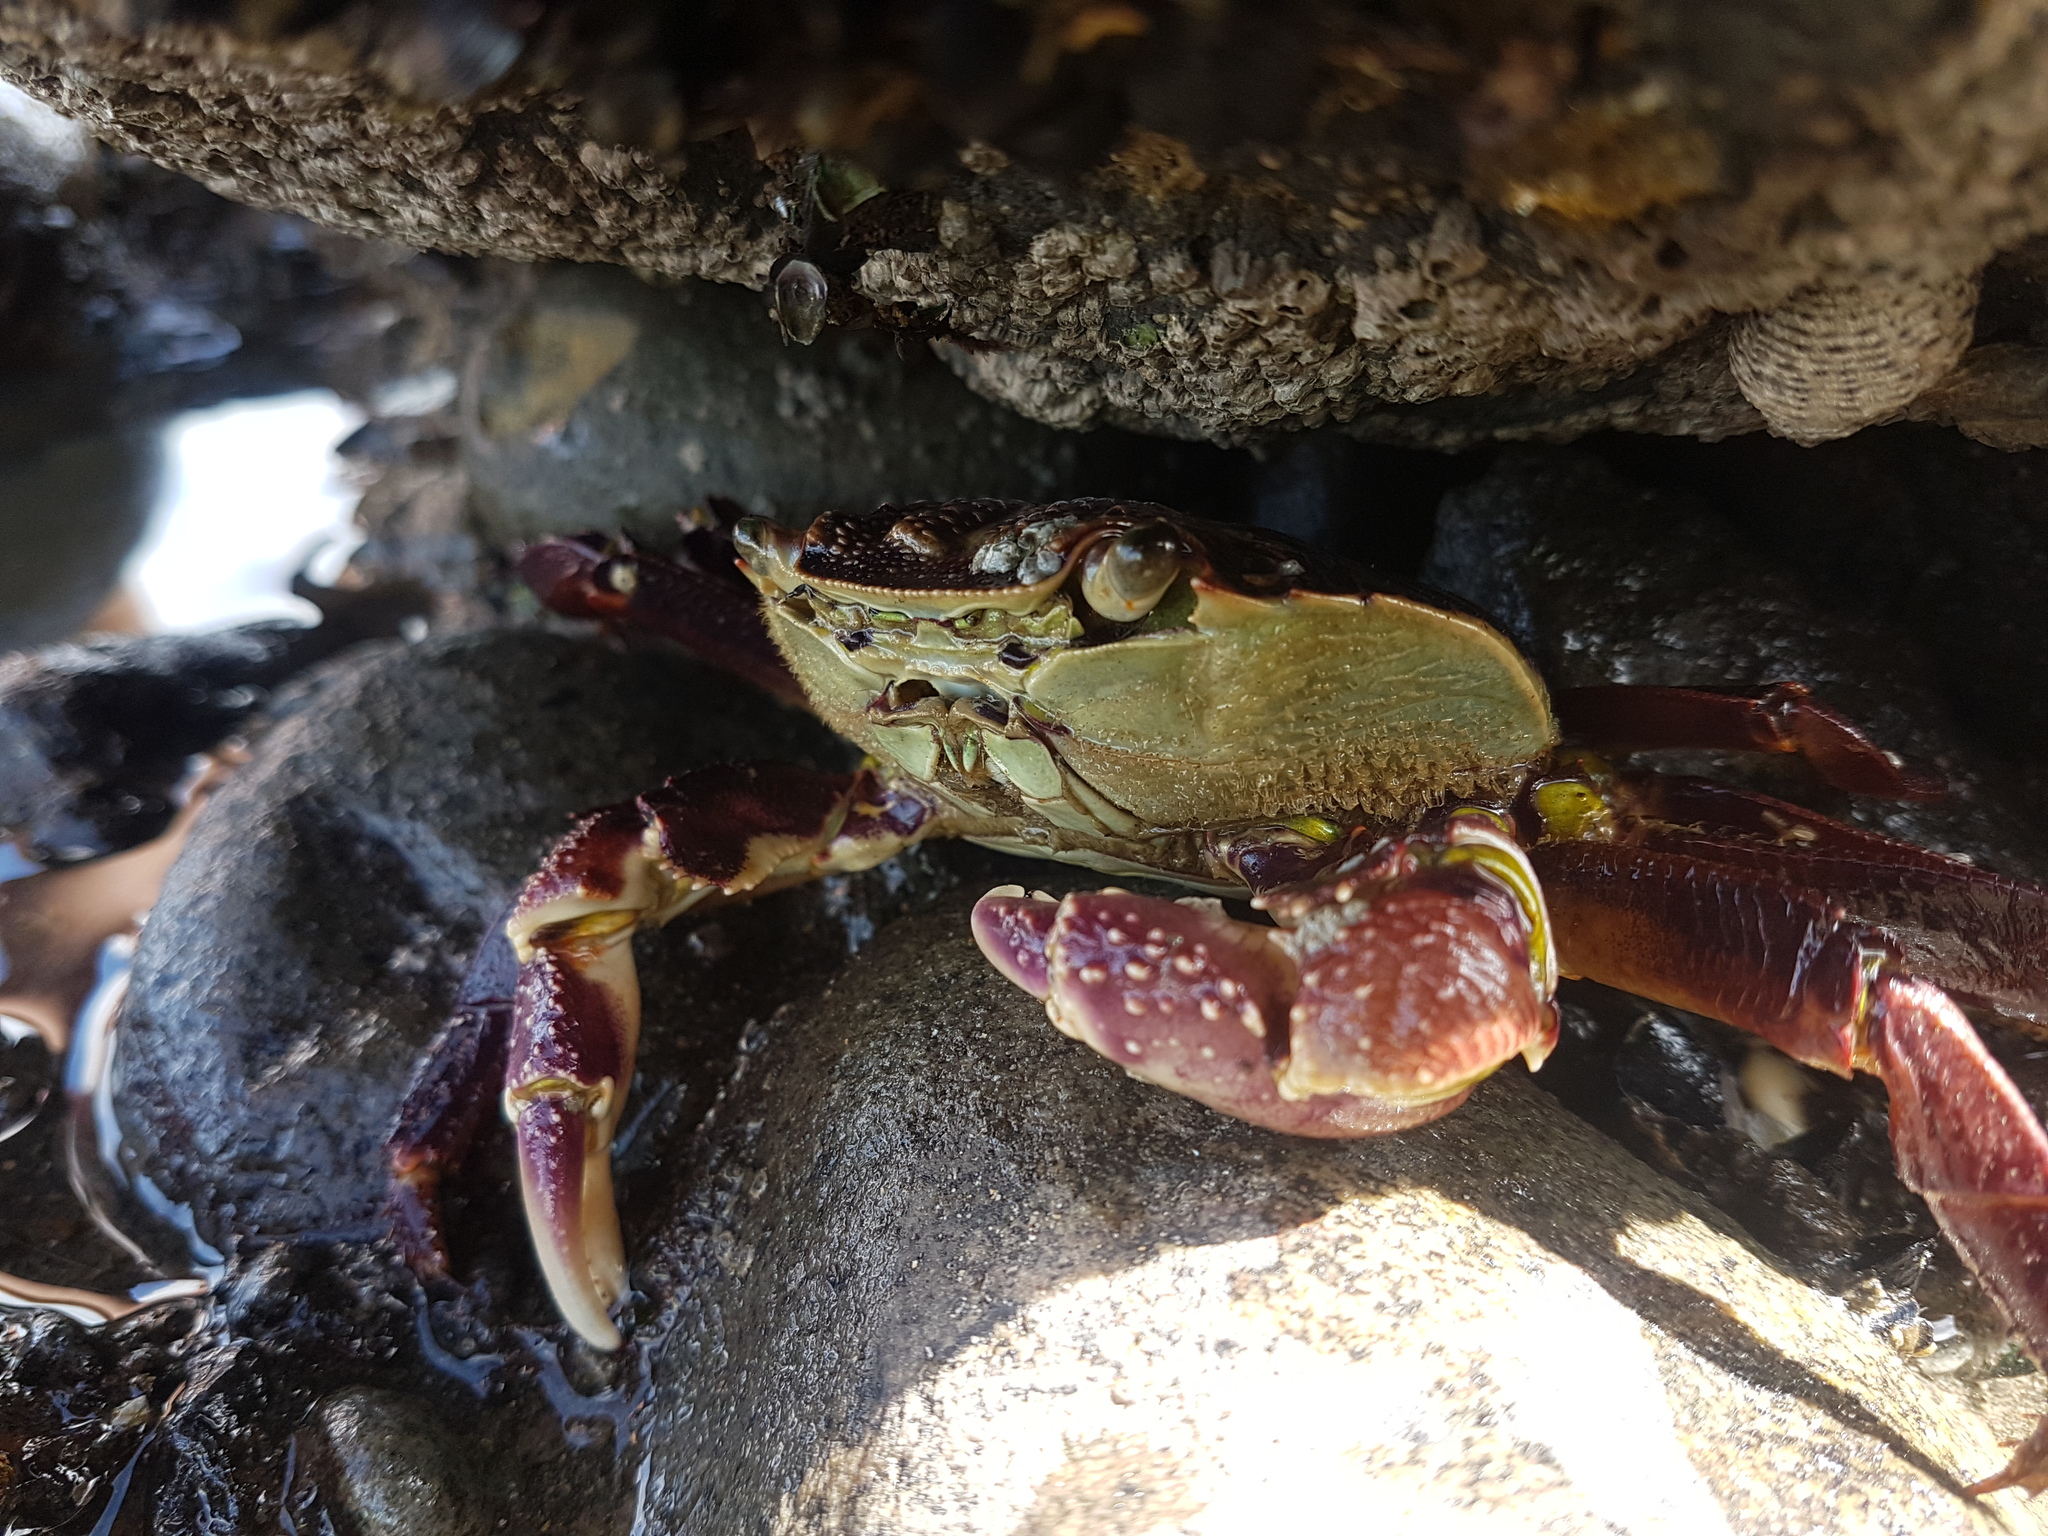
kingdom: Animalia
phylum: Arthropoda
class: Malacostraca
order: Decapoda
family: Grapsidae
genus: Leptograpsus
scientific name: Leptograpsus variegatus
